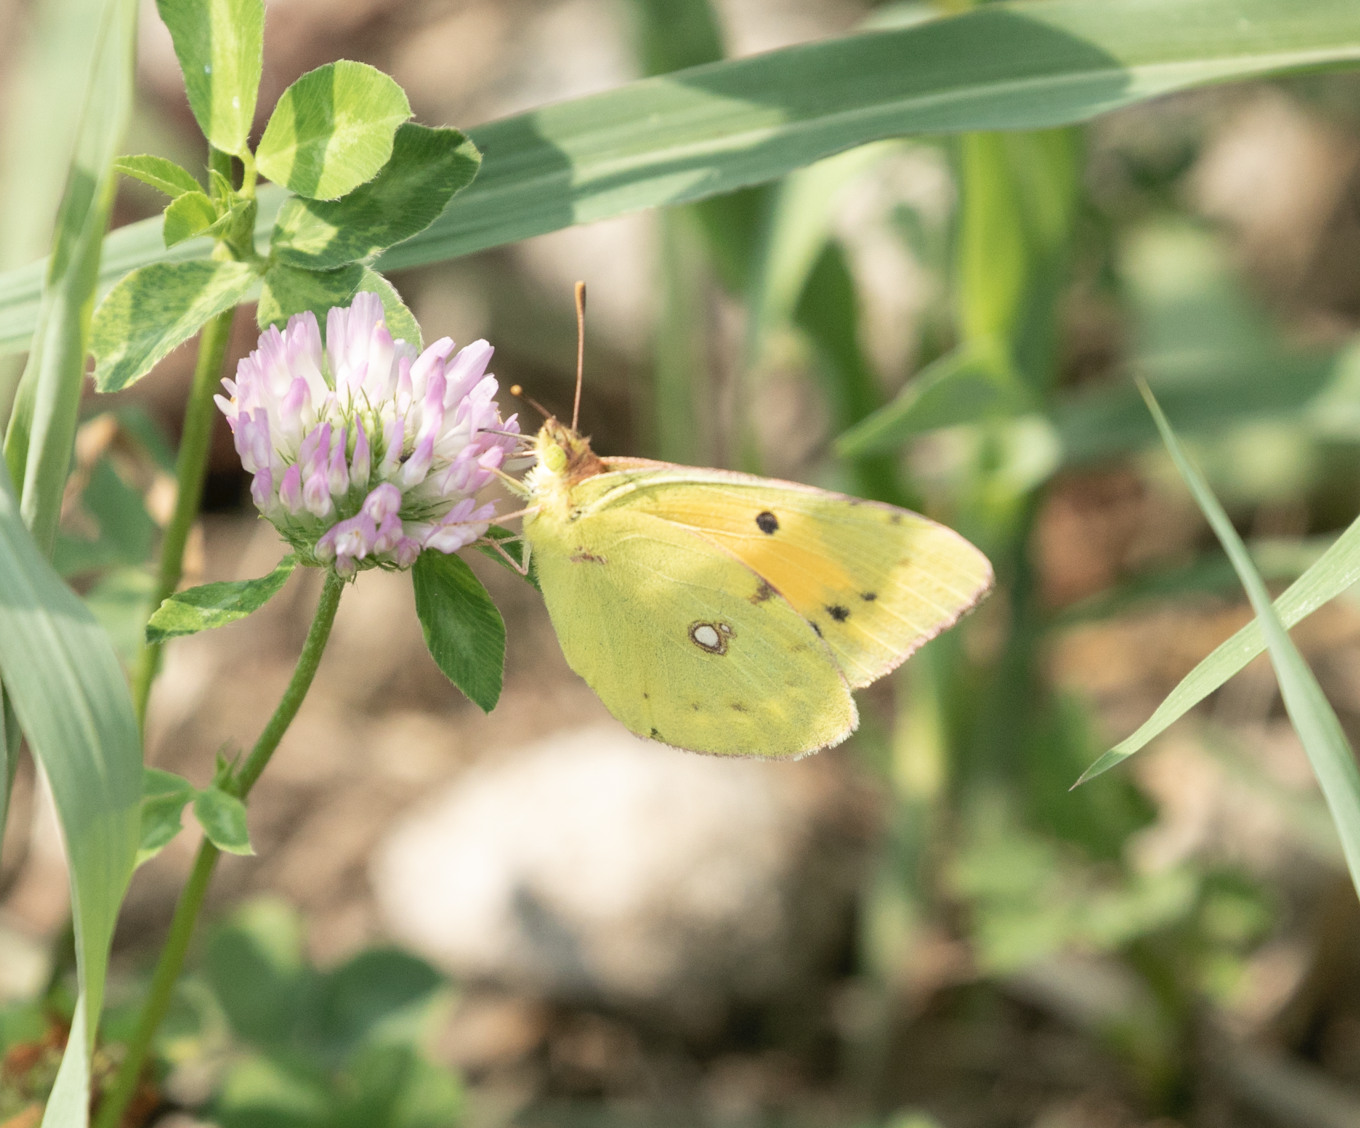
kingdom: Animalia
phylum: Arthropoda
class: Insecta
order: Lepidoptera
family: Pieridae
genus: Colias
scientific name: Colias croceus
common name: Clouded yellow
